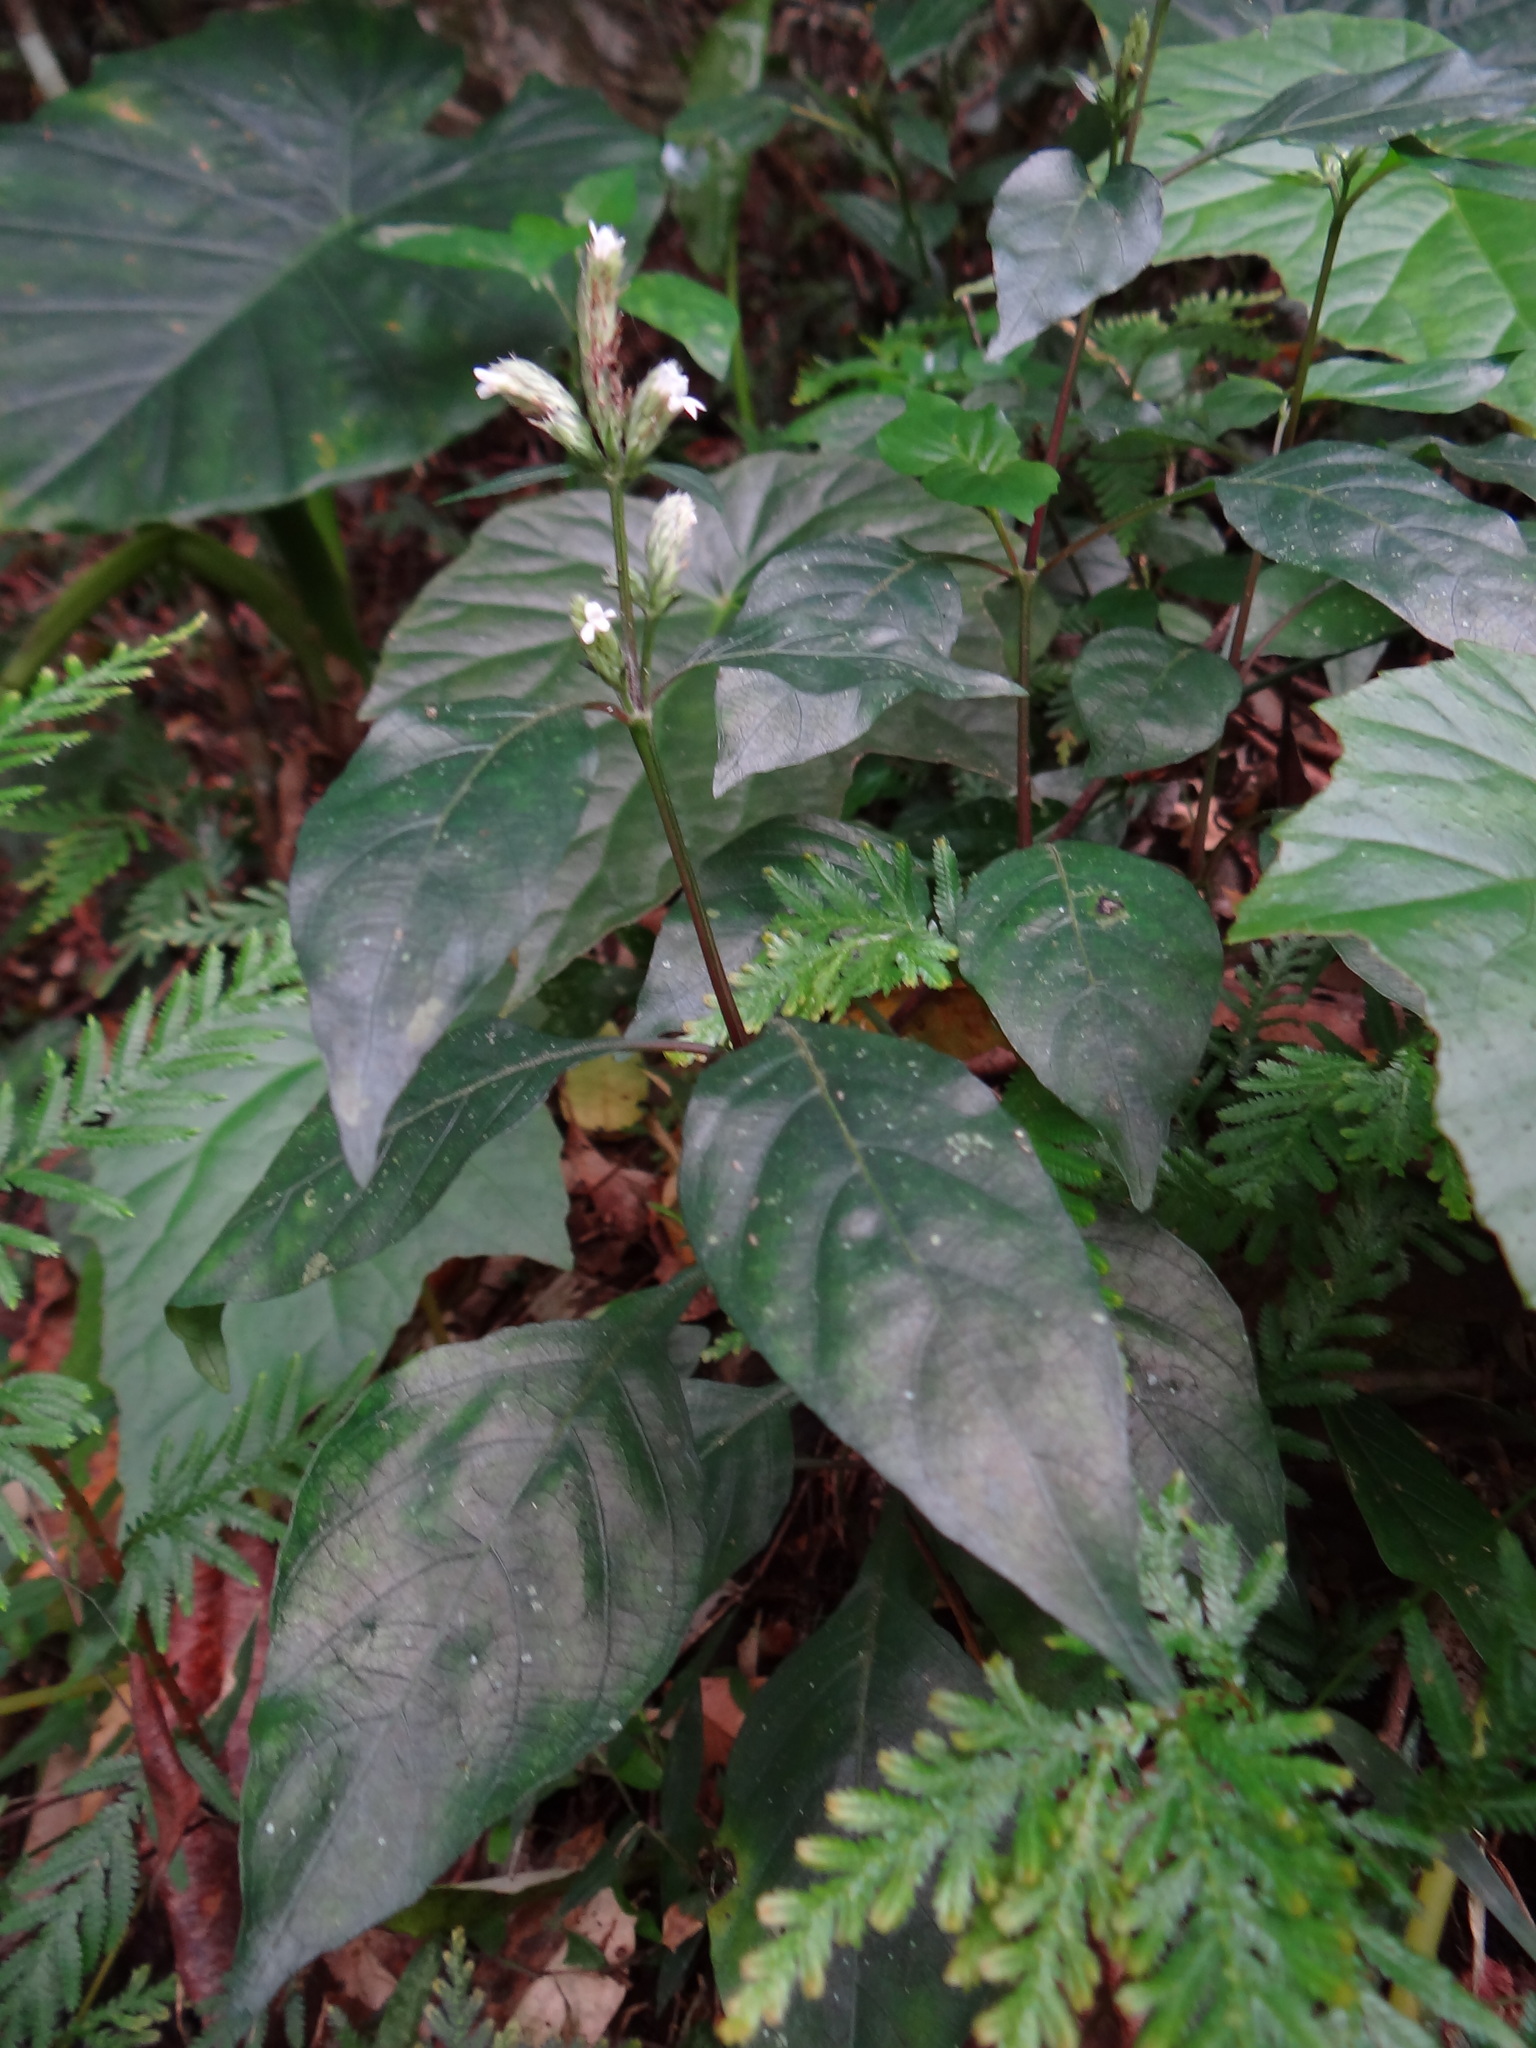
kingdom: Plantae
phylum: Tracheophyta
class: Magnoliopsida
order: Lamiales
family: Acanthaceae
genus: Lepidagathis
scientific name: Lepidagathis formosensis
